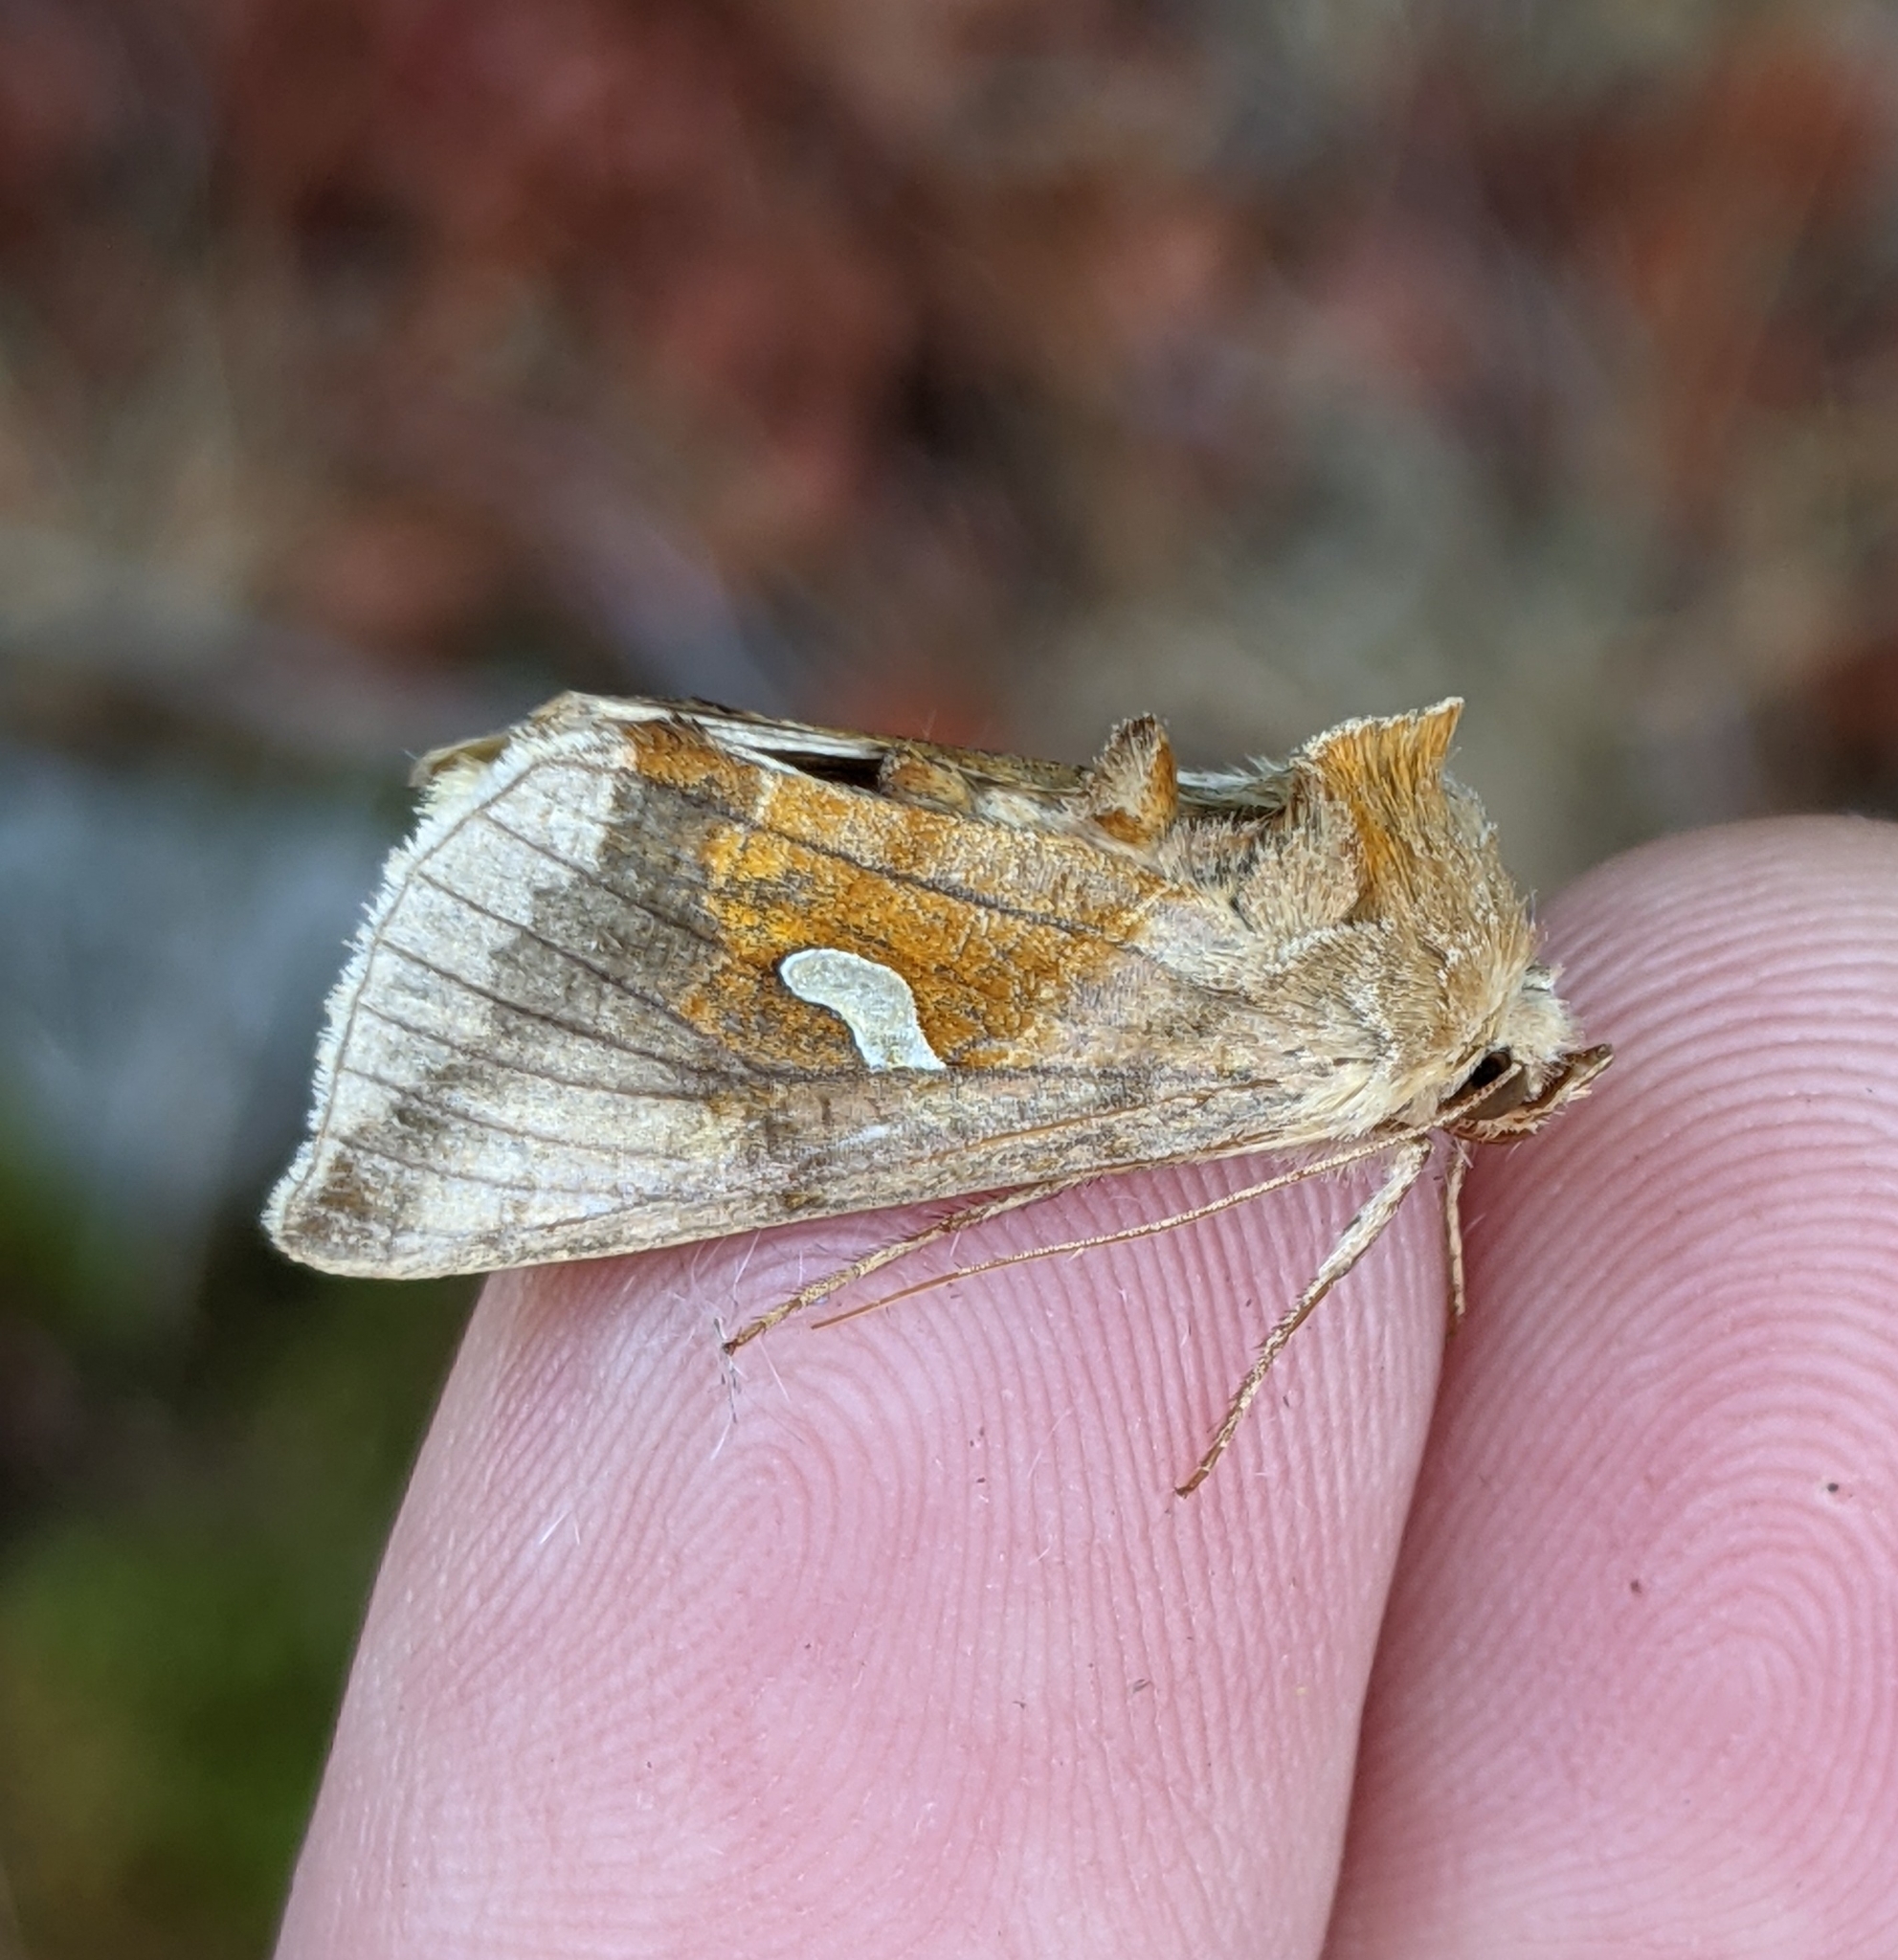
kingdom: Animalia
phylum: Arthropoda
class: Insecta
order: Lepidoptera
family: Noctuidae
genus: Autographa
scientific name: Autographa metallica
